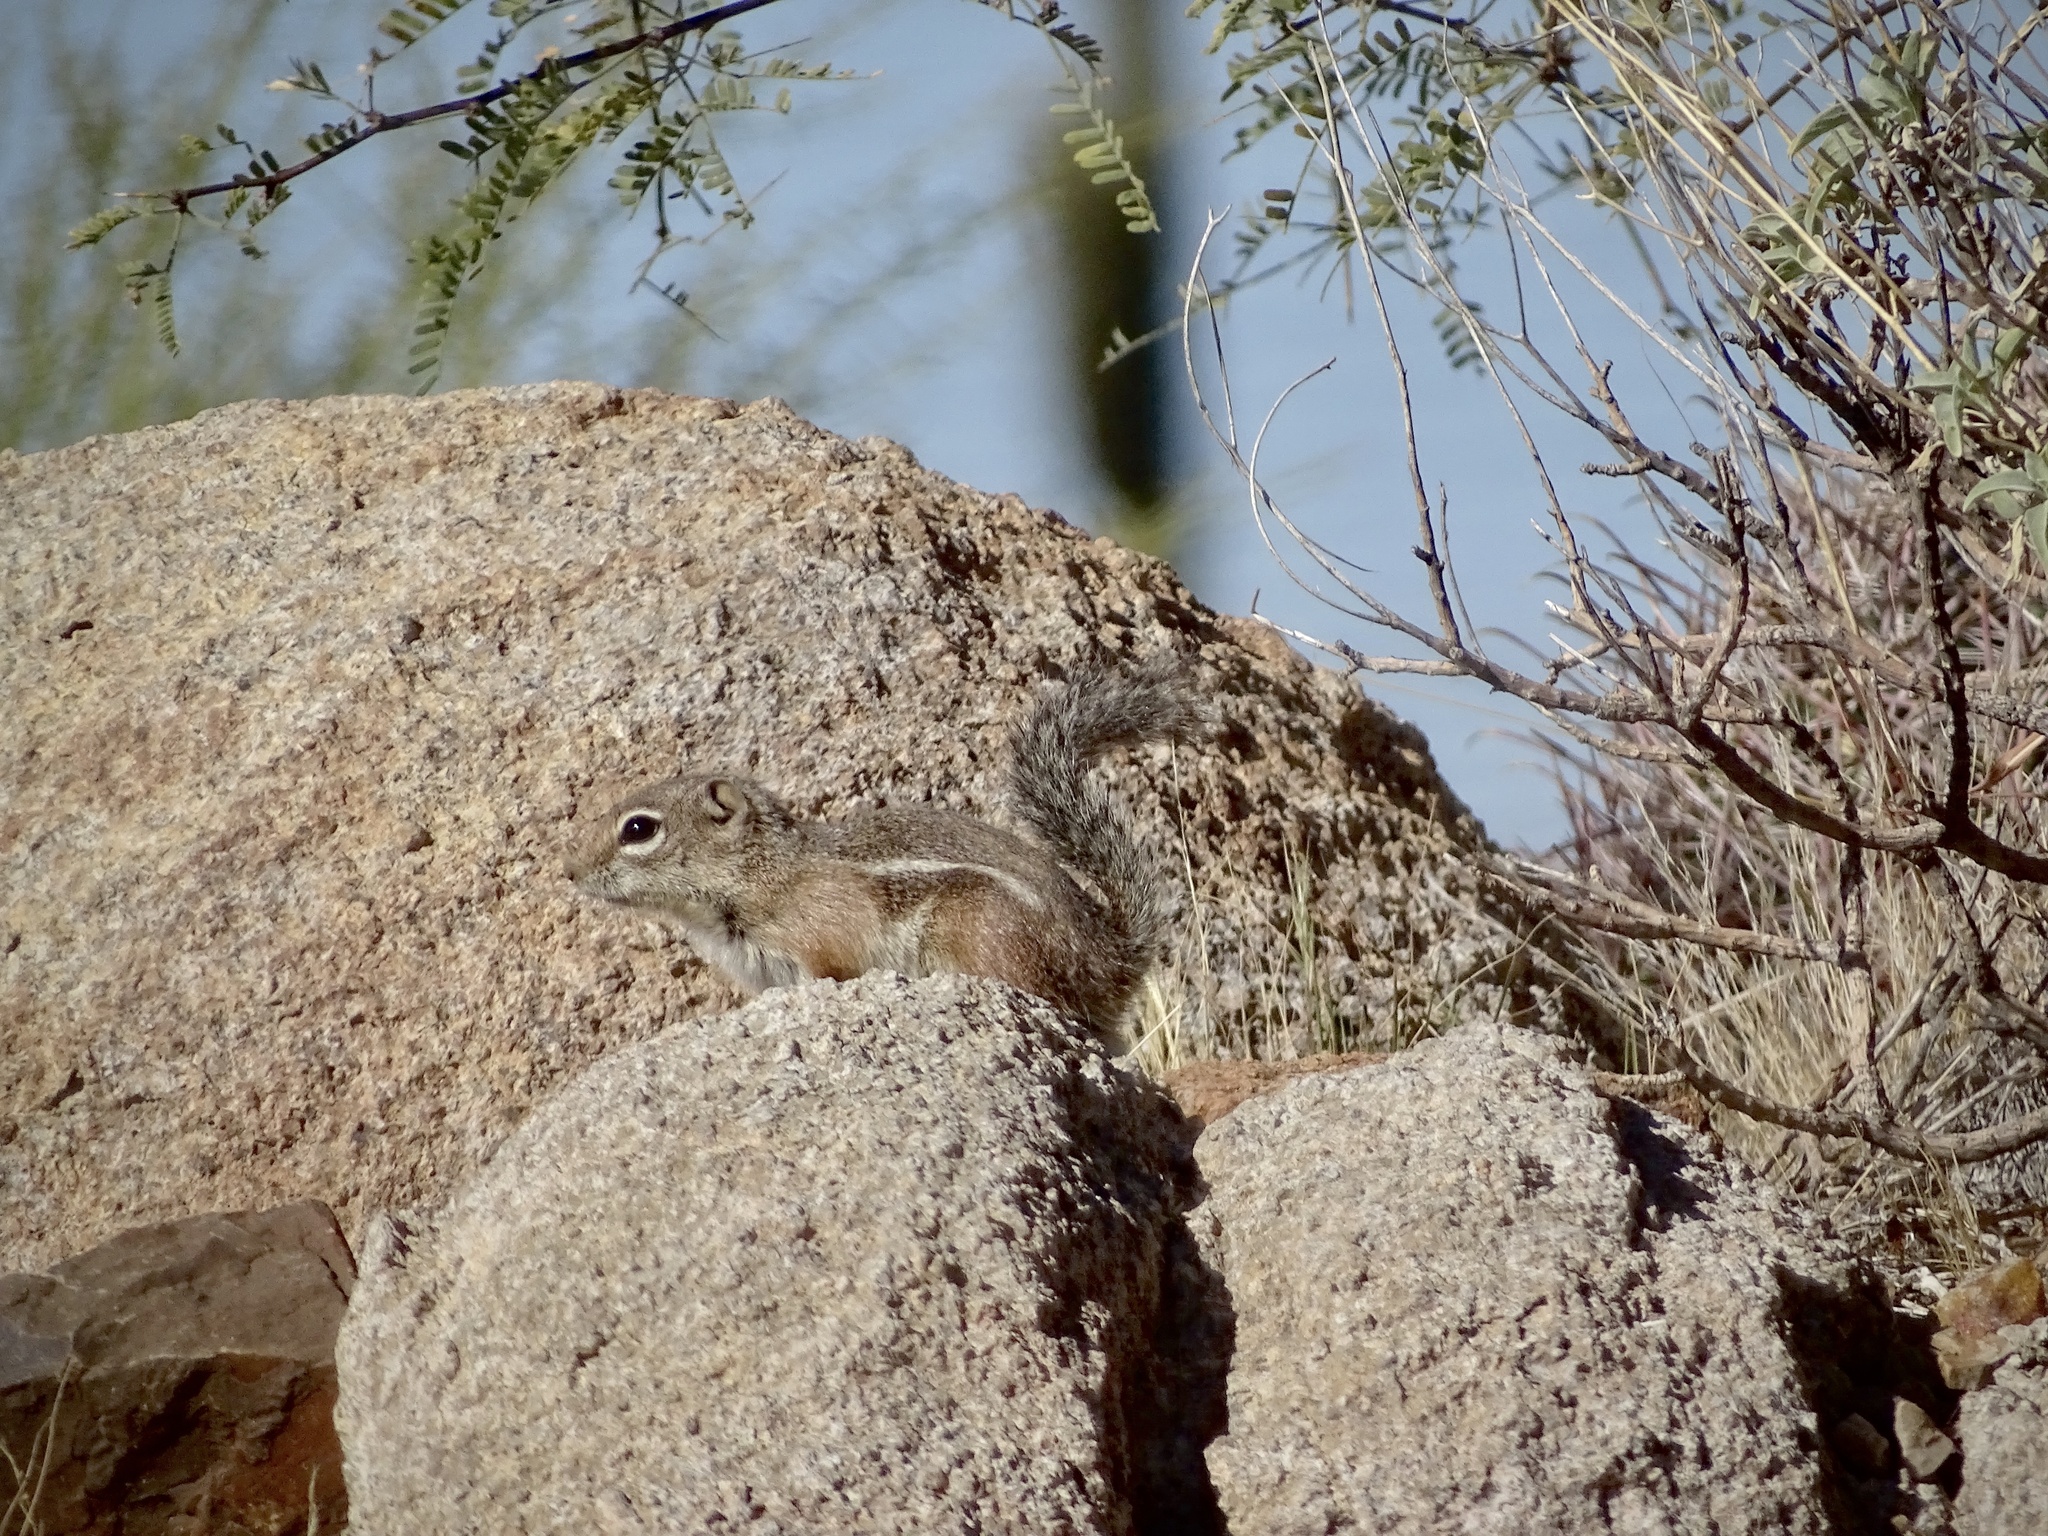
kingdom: Animalia
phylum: Chordata
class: Mammalia
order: Rodentia
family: Sciuridae
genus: Ammospermophilus
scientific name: Ammospermophilus harrisii
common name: Harris's antelope squirrel
